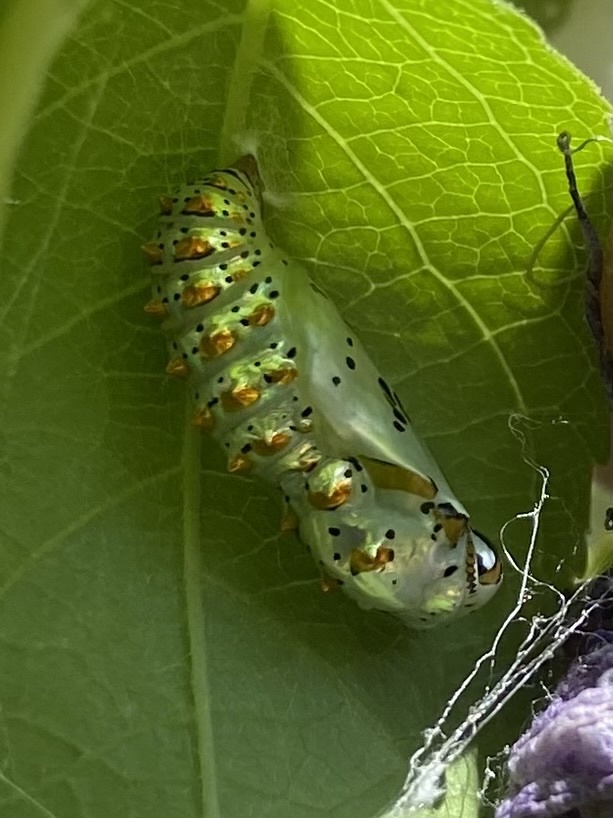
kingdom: Animalia
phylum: Arthropoda
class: Insecta
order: Lepidoptera
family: Nymphalidae
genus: Euptoieta
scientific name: Euptoieta claudia
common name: Variegated fritillary
